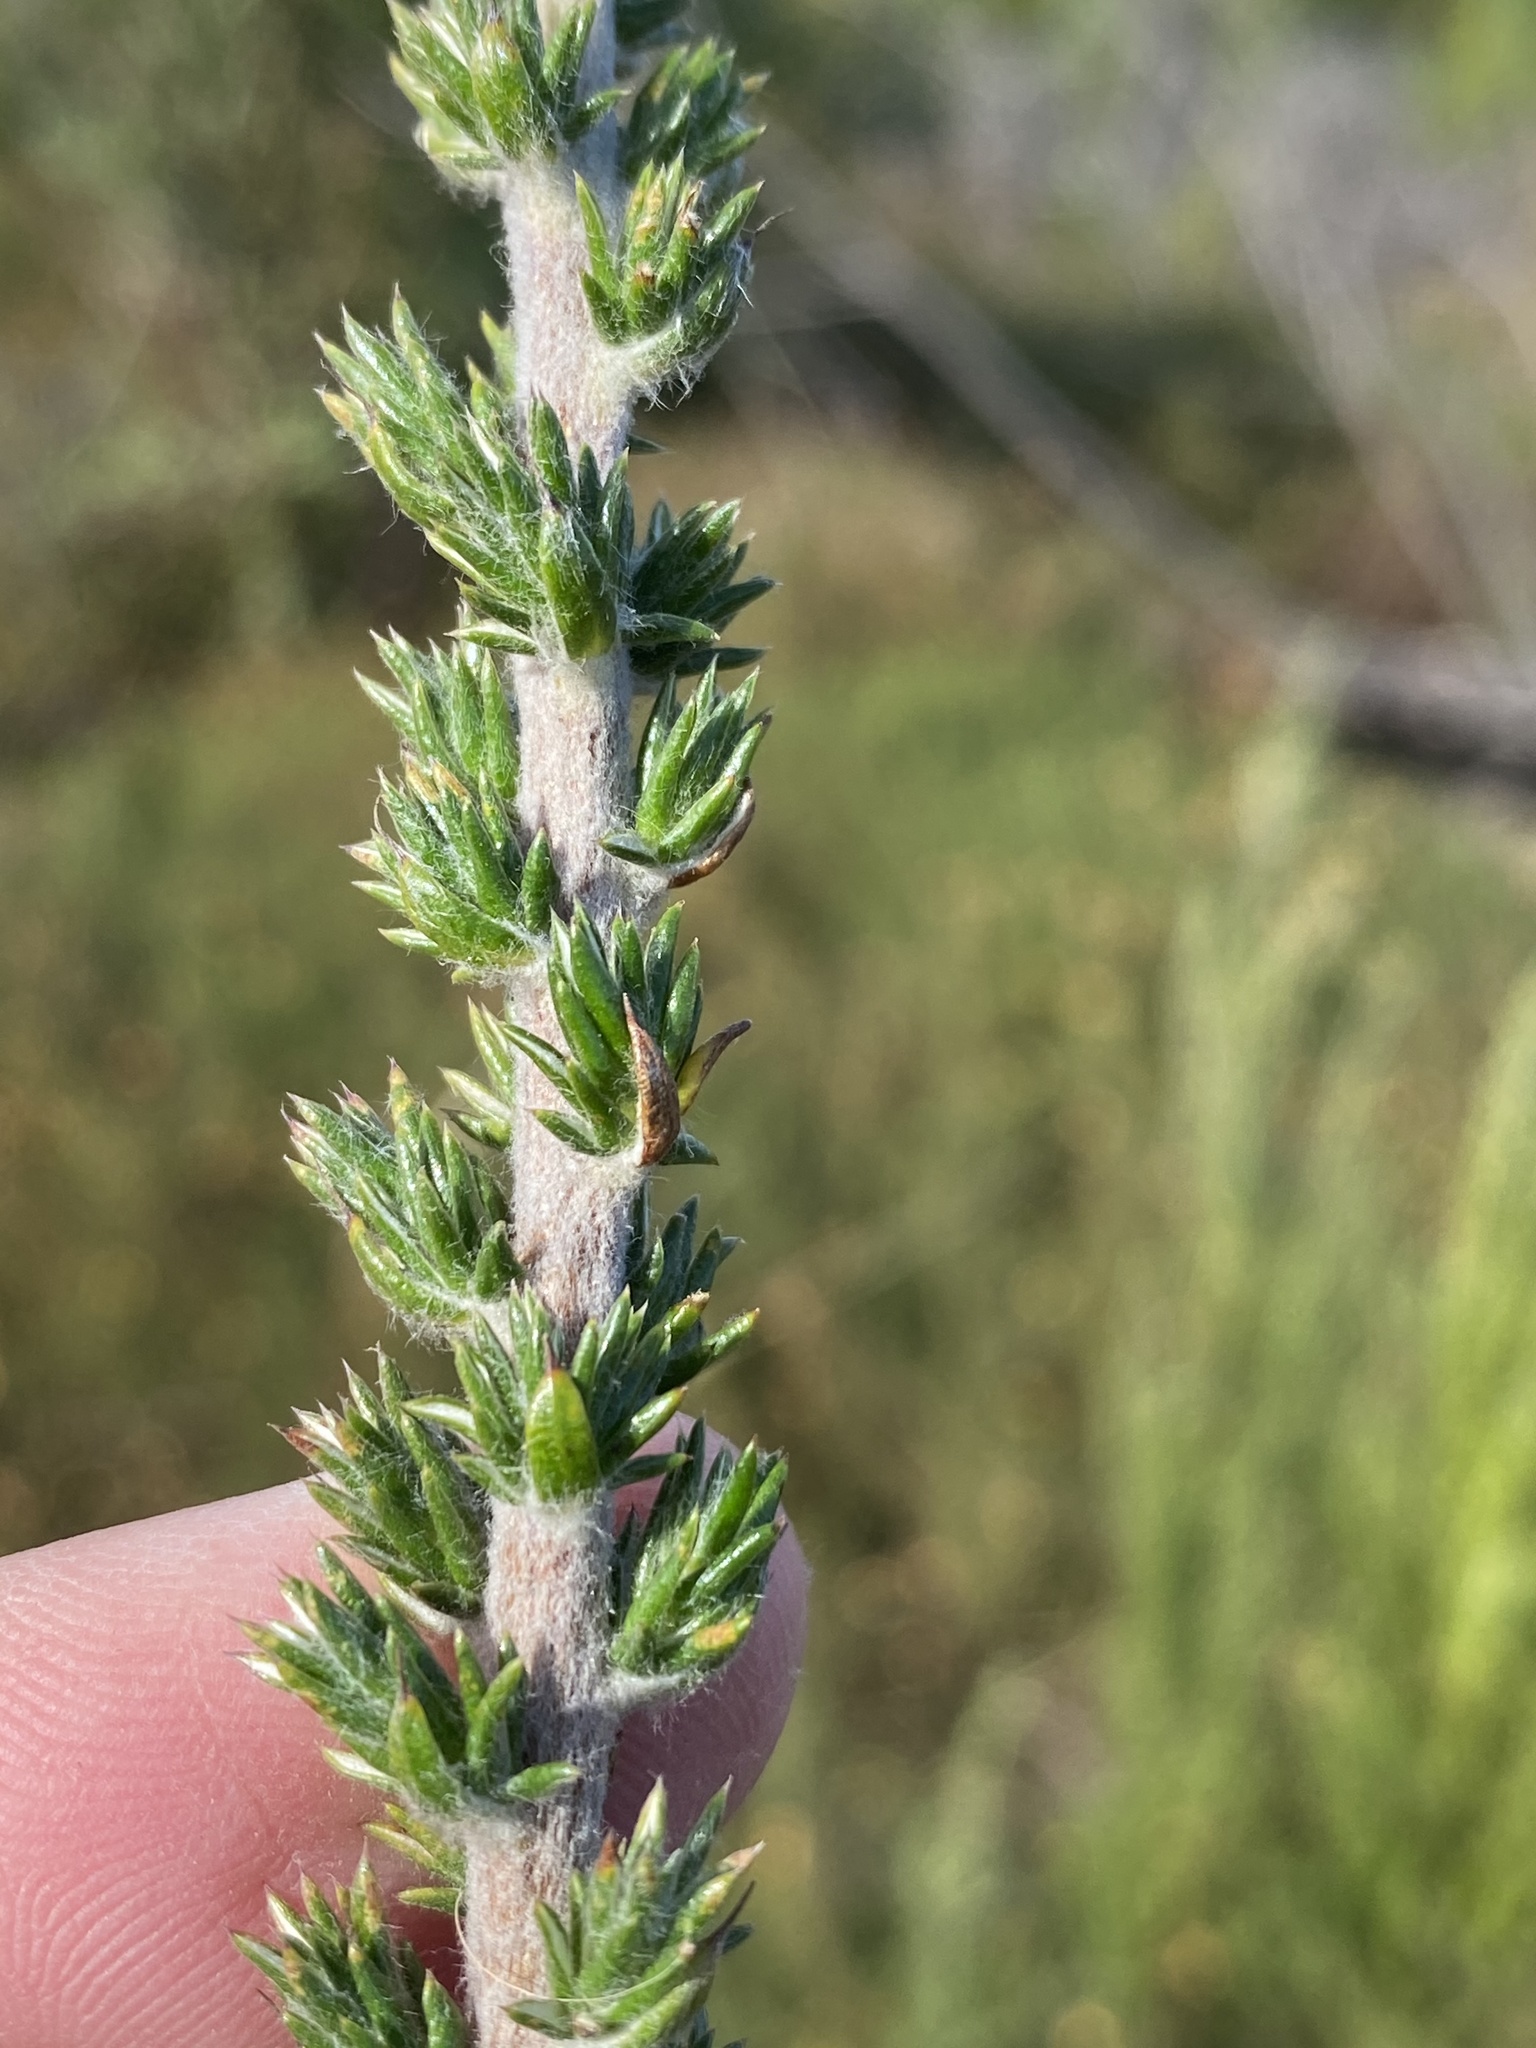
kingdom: Plantae
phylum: Tracheophyta
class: Magnoliopsida
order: Asterales
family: Asteraceae
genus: Metalasia
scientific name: Metalasia pungens
